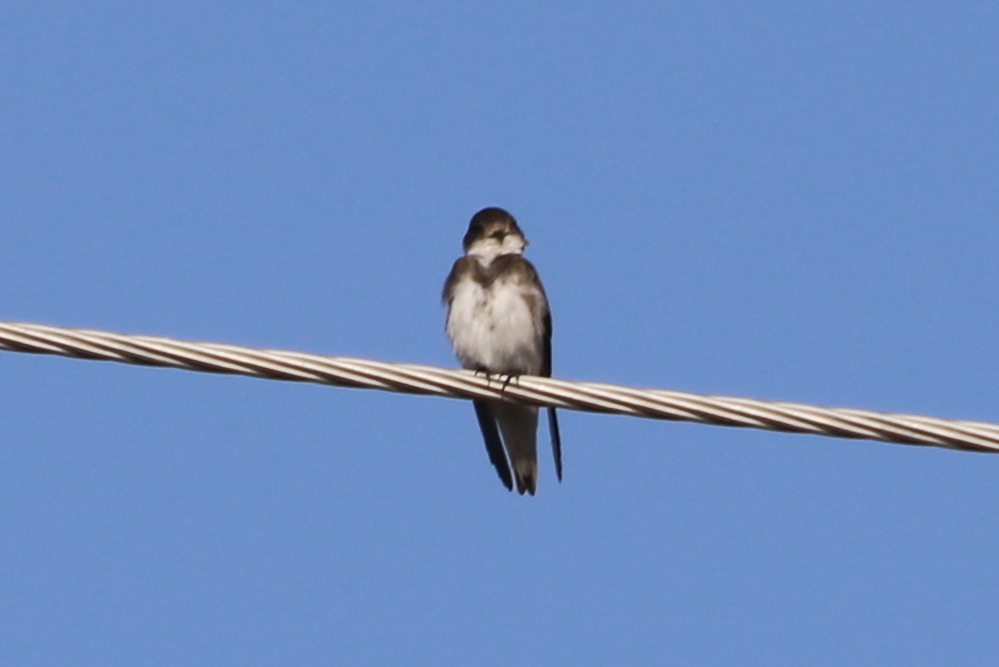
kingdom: Animalia
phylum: Chordata
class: Aves
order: Passeriformes
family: Hirundinidae
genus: Riparia
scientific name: Riparia riparia
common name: Sand martin
